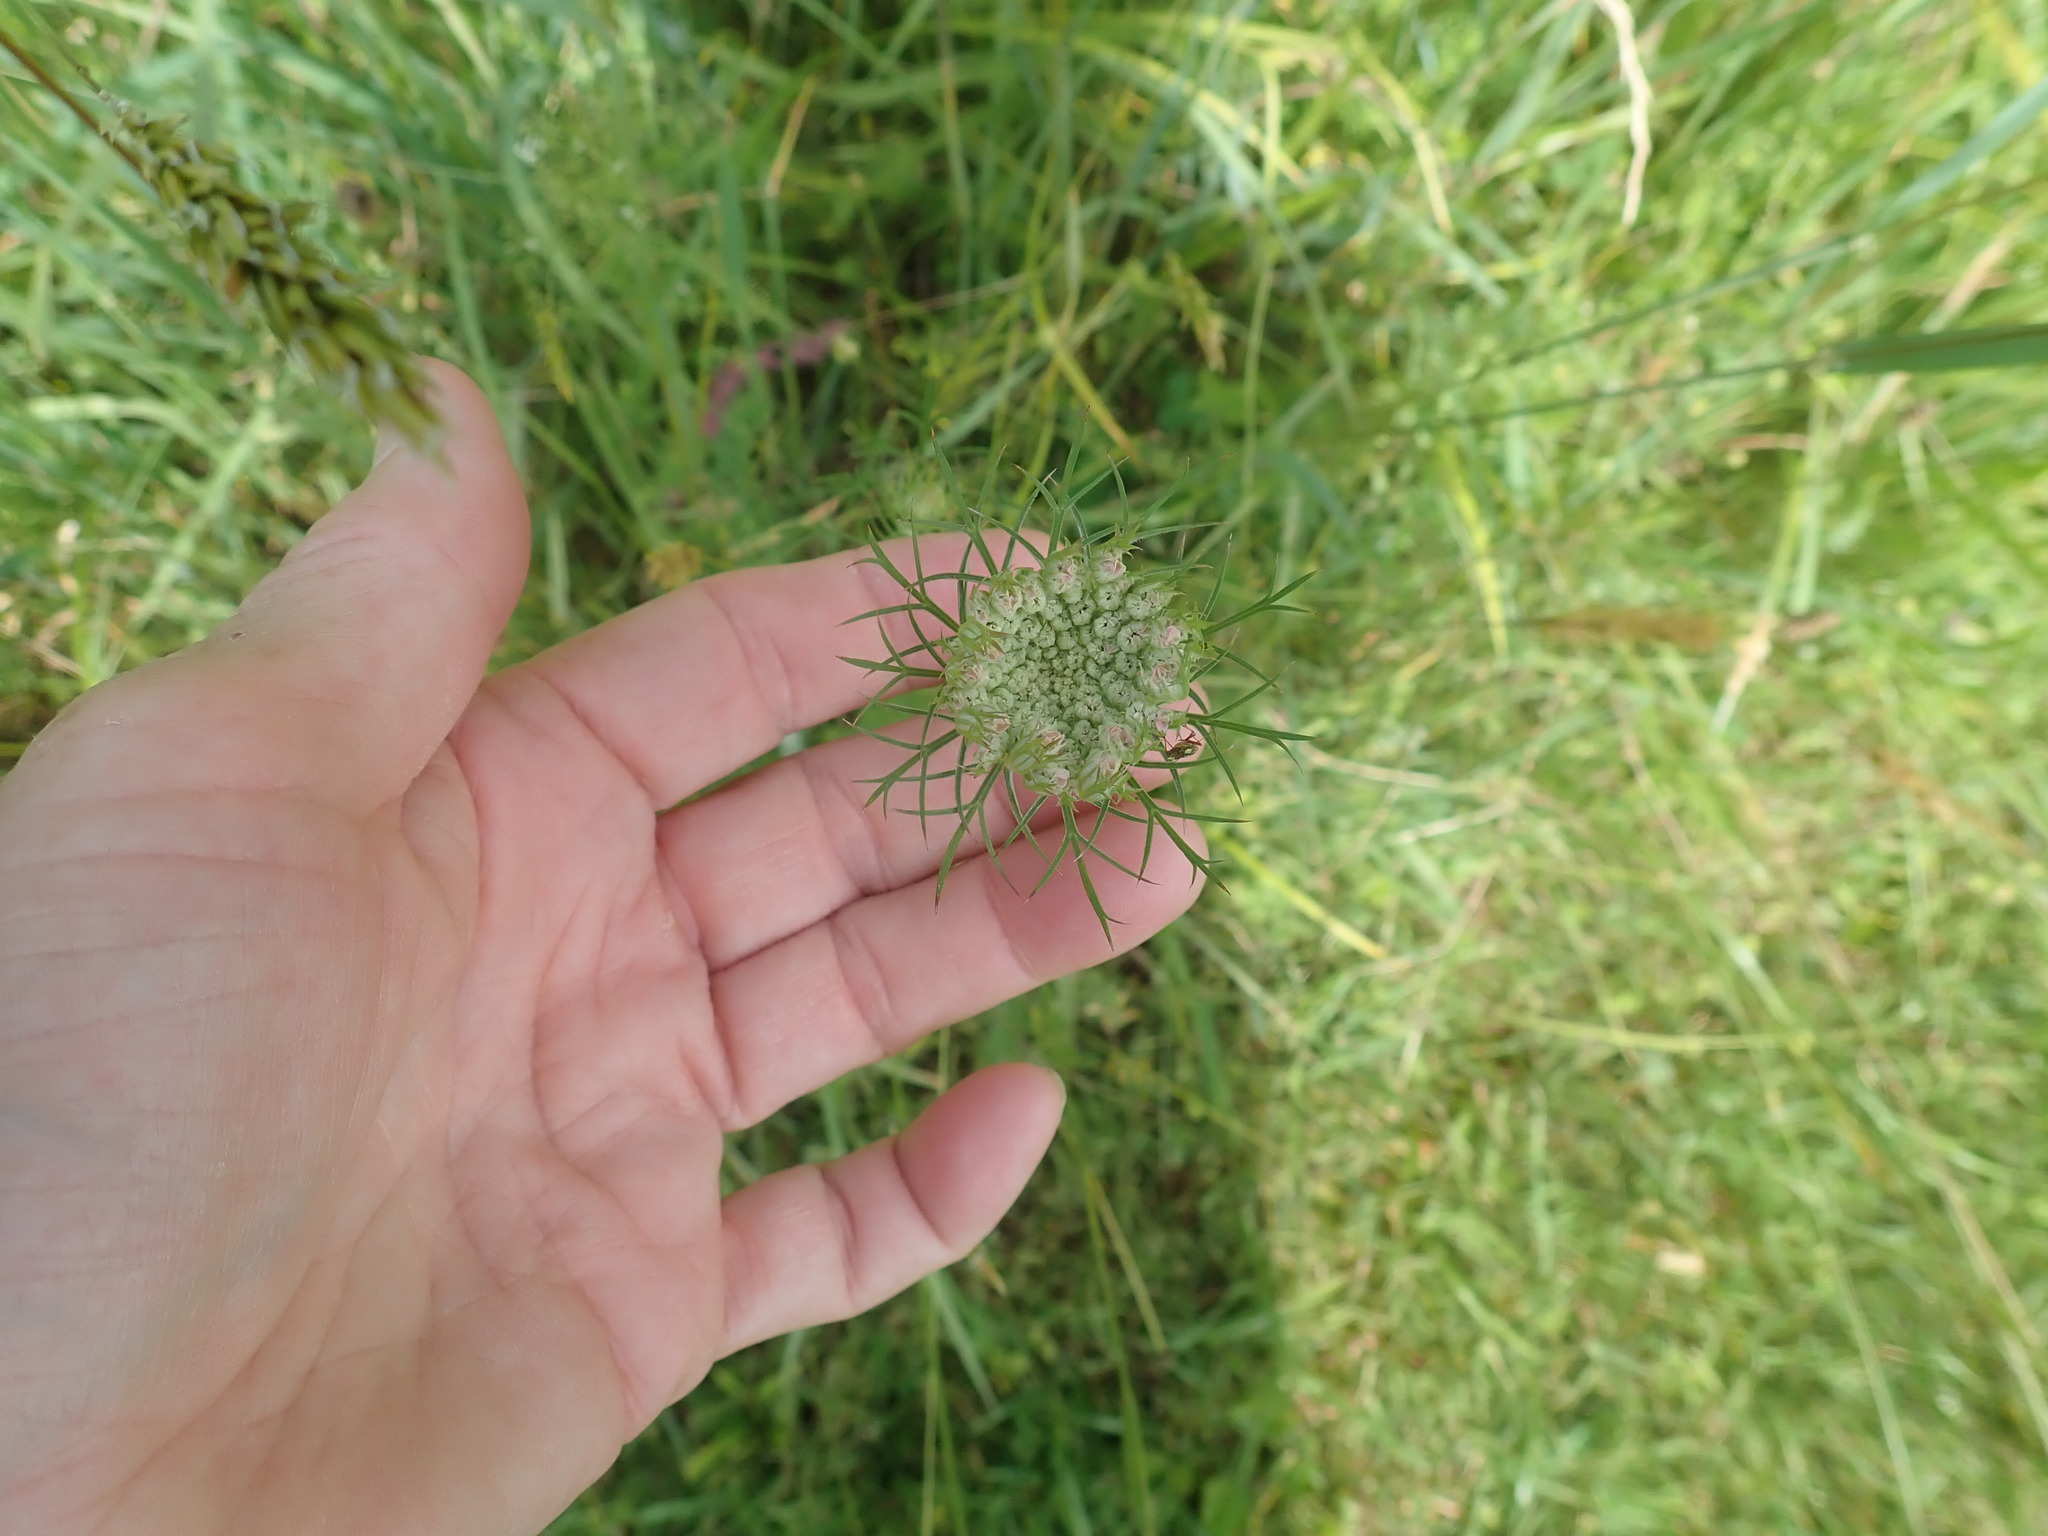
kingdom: Plantae
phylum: Tracheophyta
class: Magnoliopsida
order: Apiales
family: Apiaceae
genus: Daucus
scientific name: Daucus carota
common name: Wild carrot
